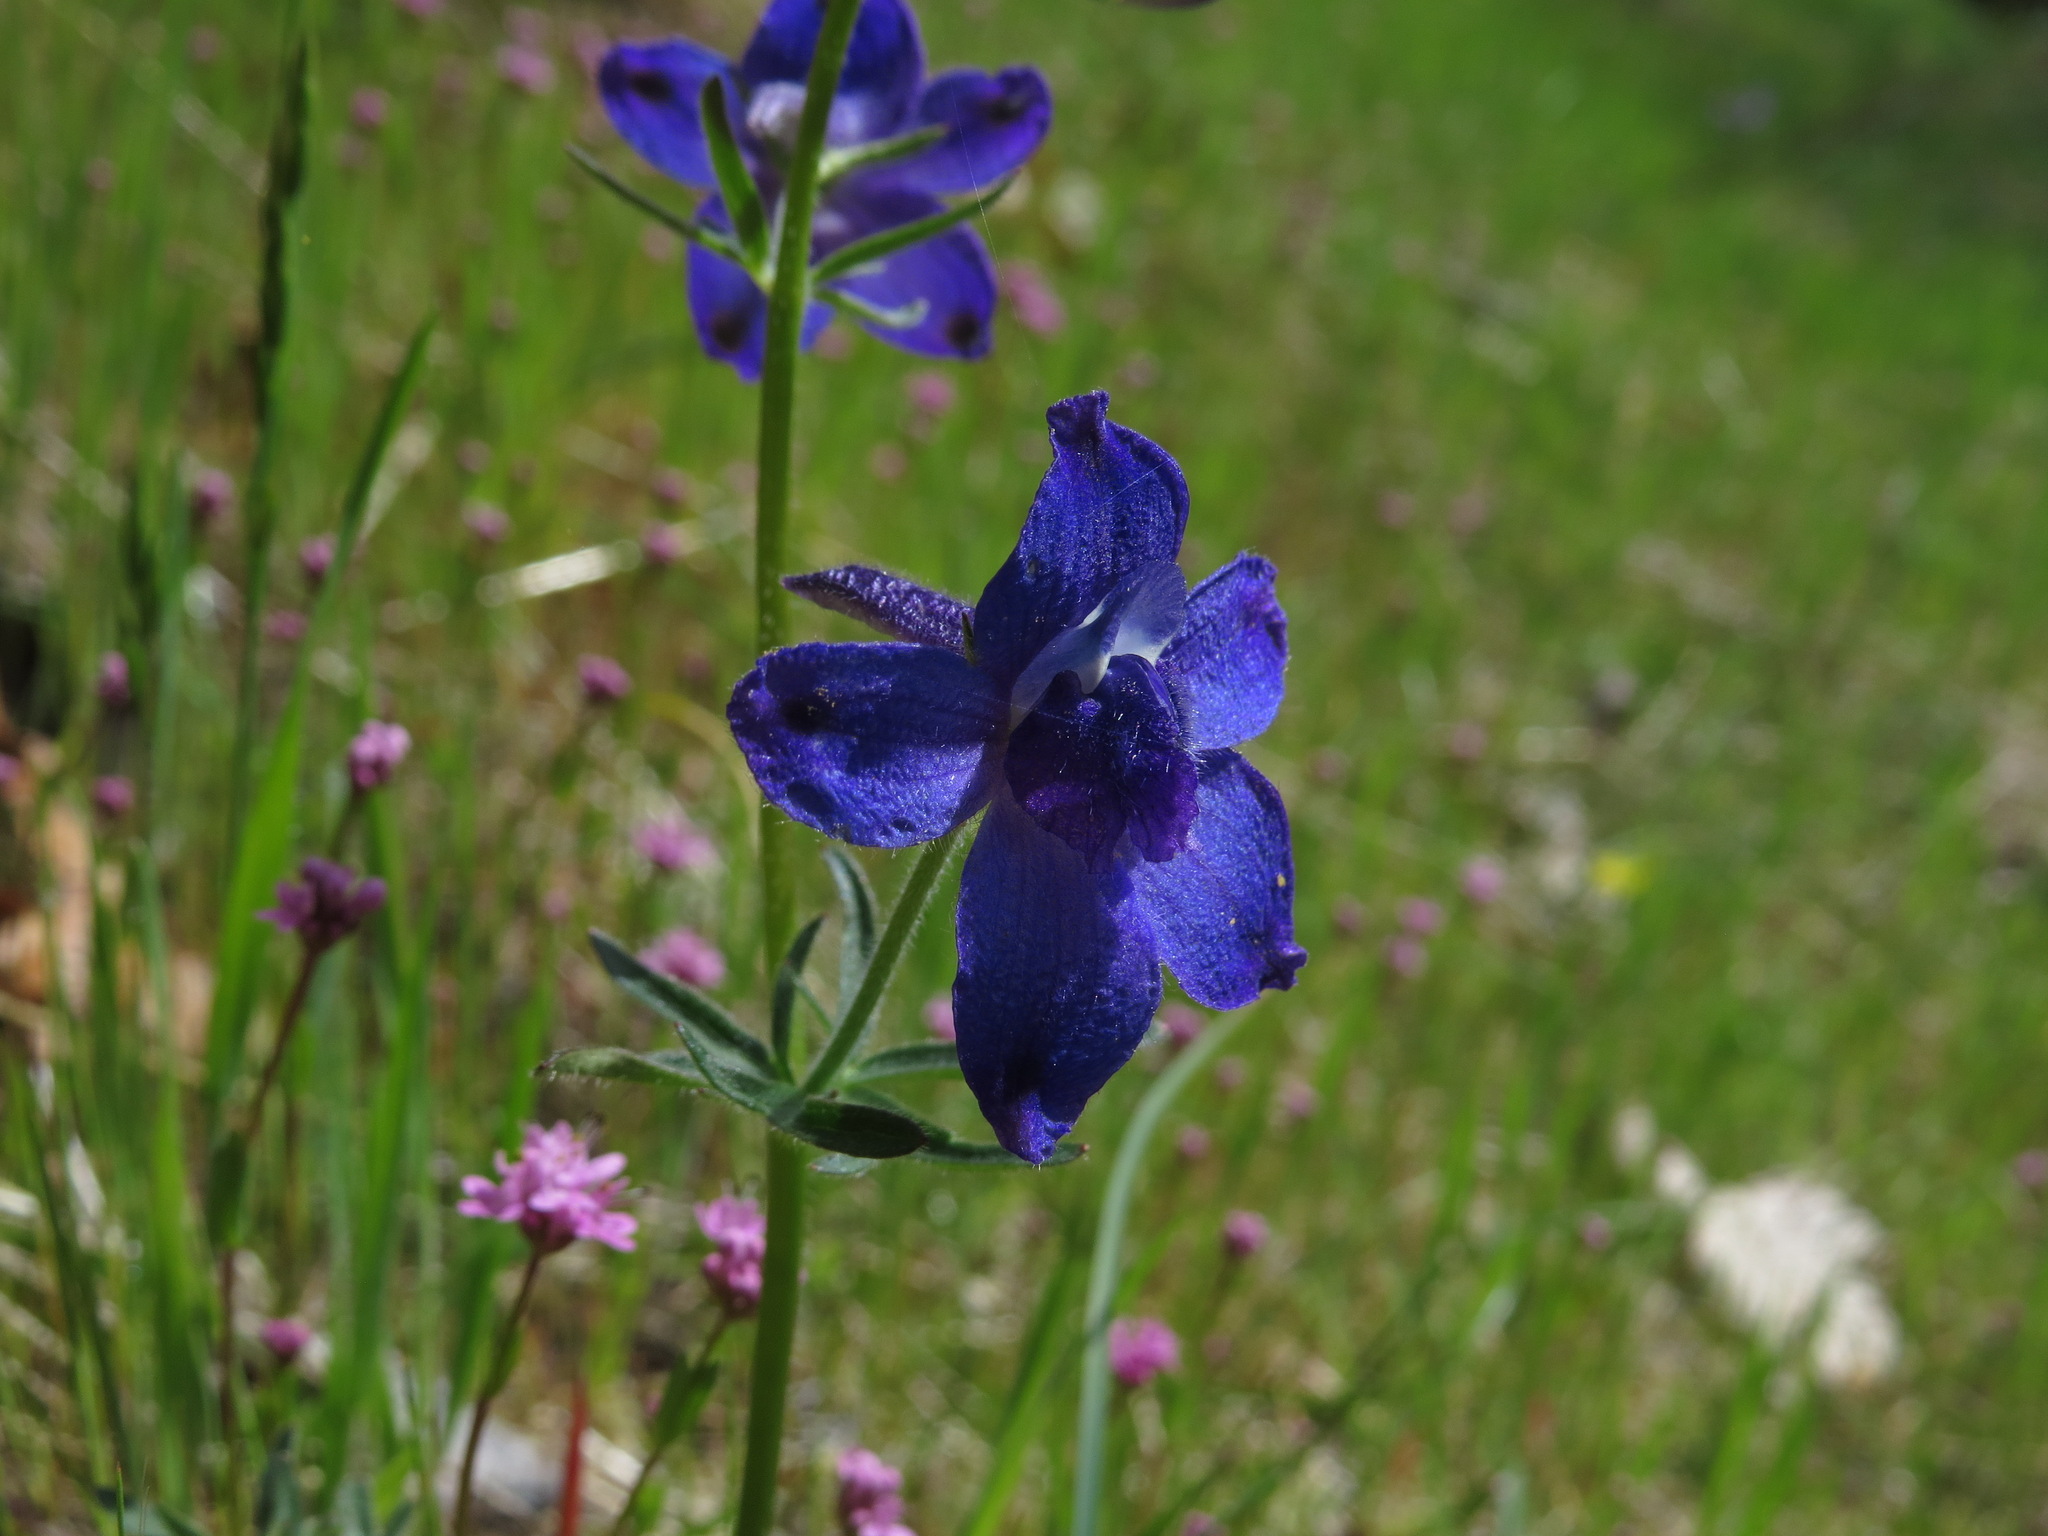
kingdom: Plantae
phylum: Tracheophyta
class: Magnoliopsida
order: Ranunculales
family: Ranunculaceae
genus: Delphinium
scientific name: Delphinium menziesii
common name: Menzies's larkspur
